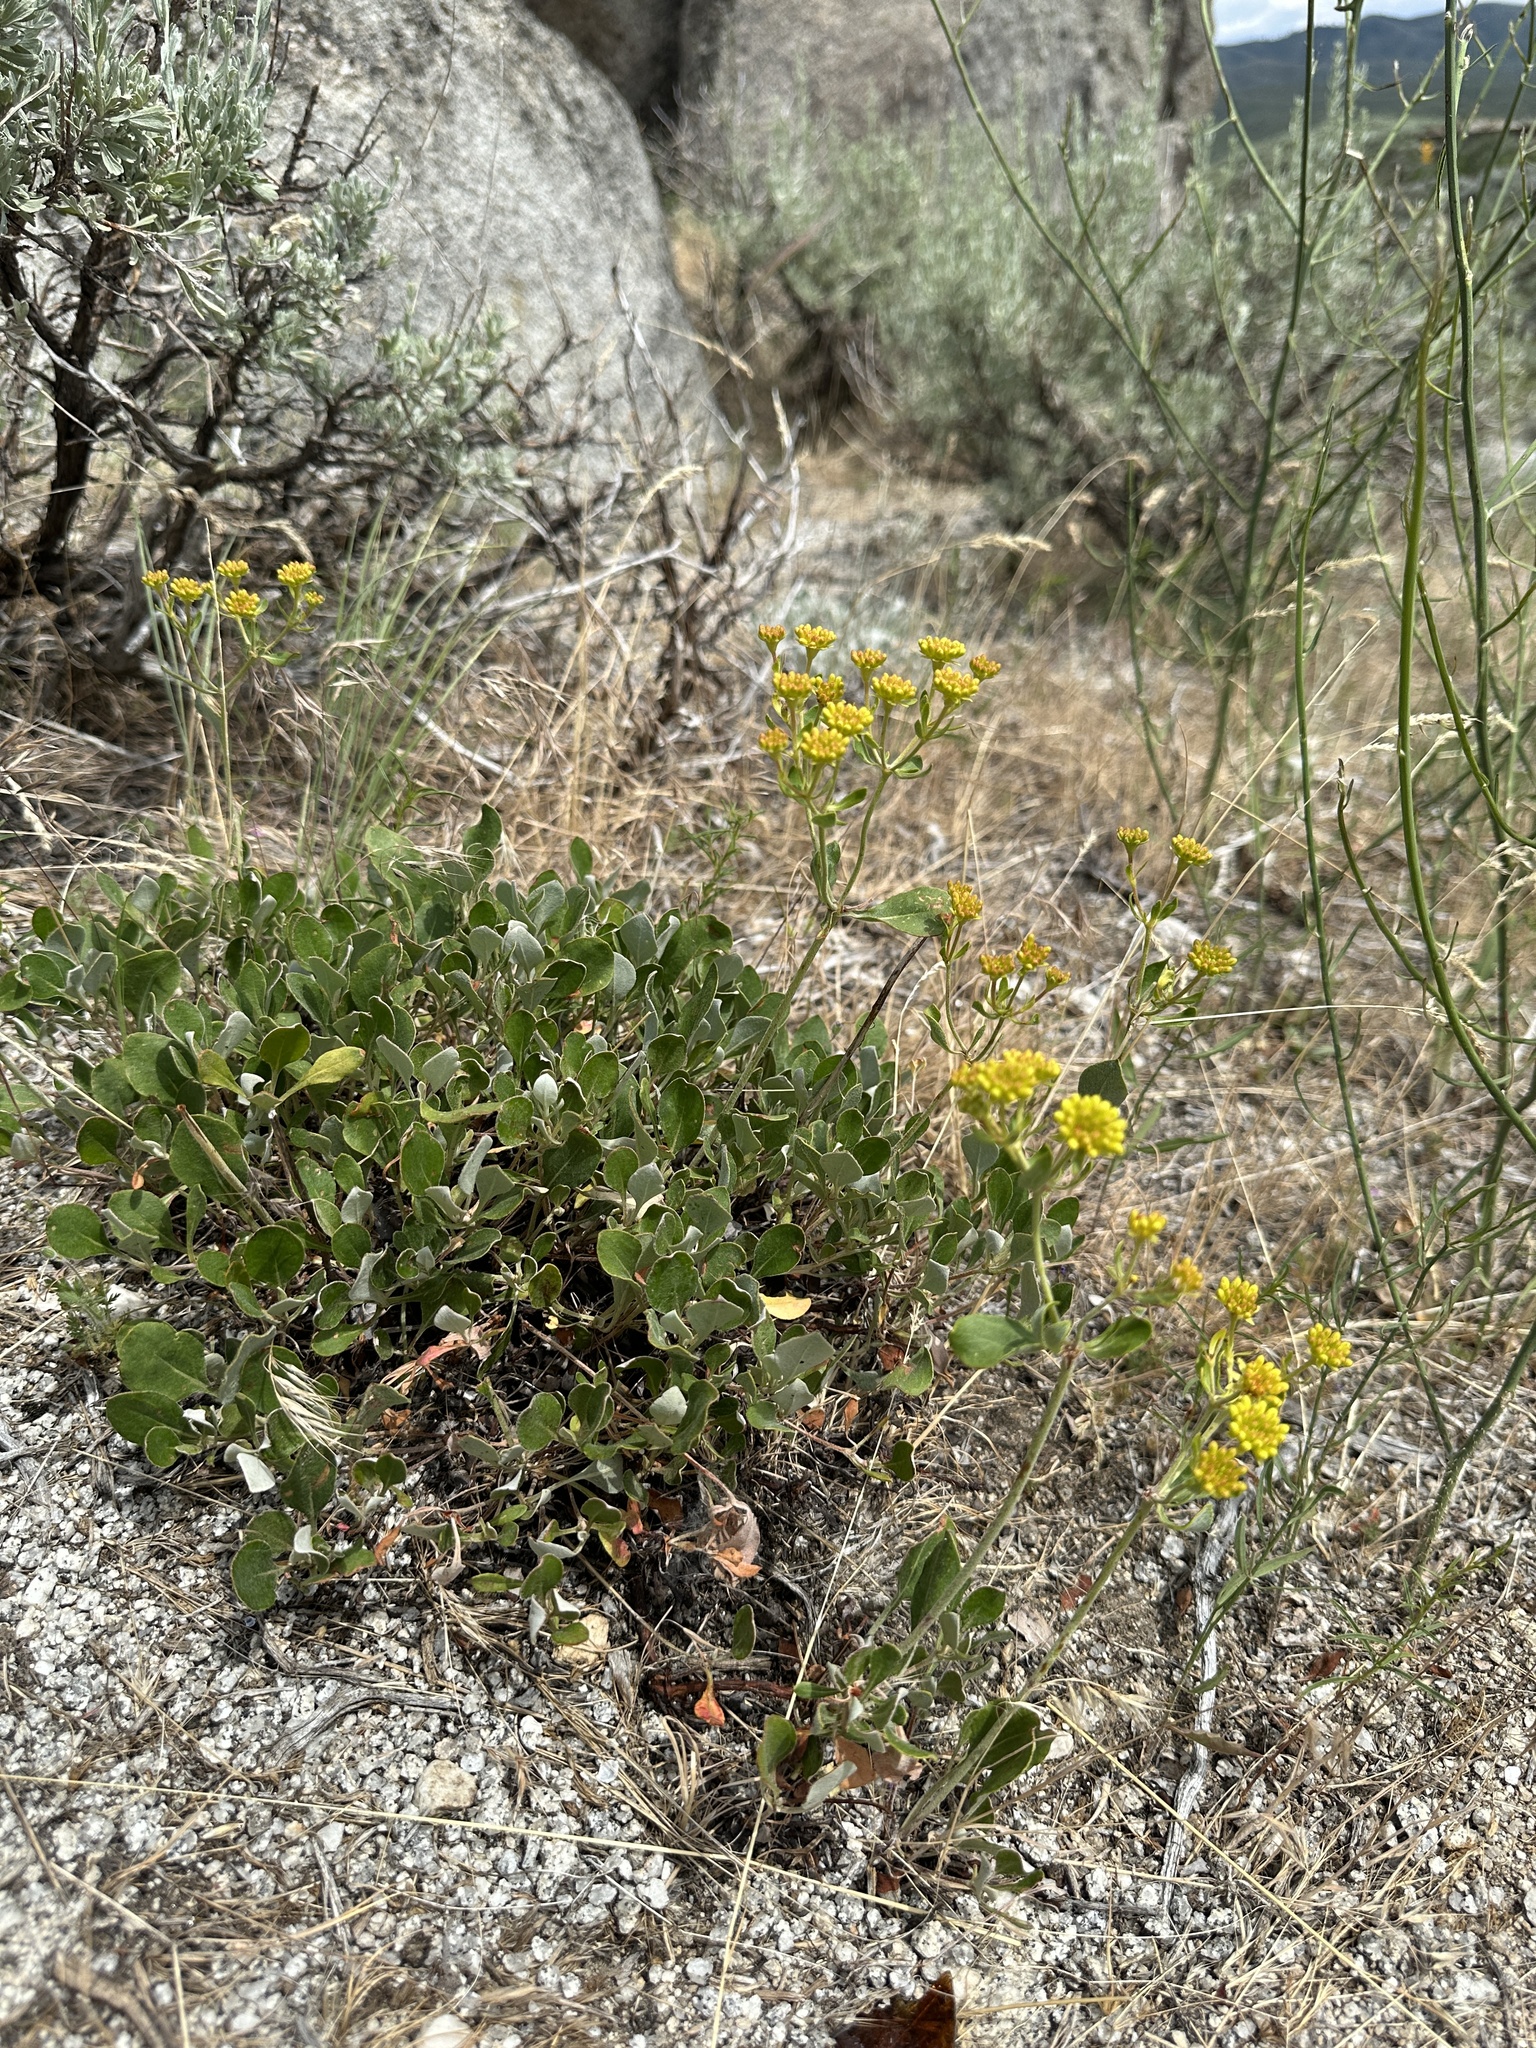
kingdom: Plantae
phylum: Tracheophyta
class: Magnoliopsida
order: Caryophyllales
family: Polygonaceae
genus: Eriogonum
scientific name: Eriogonum umbellatum
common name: Sulfur-buckwheat
